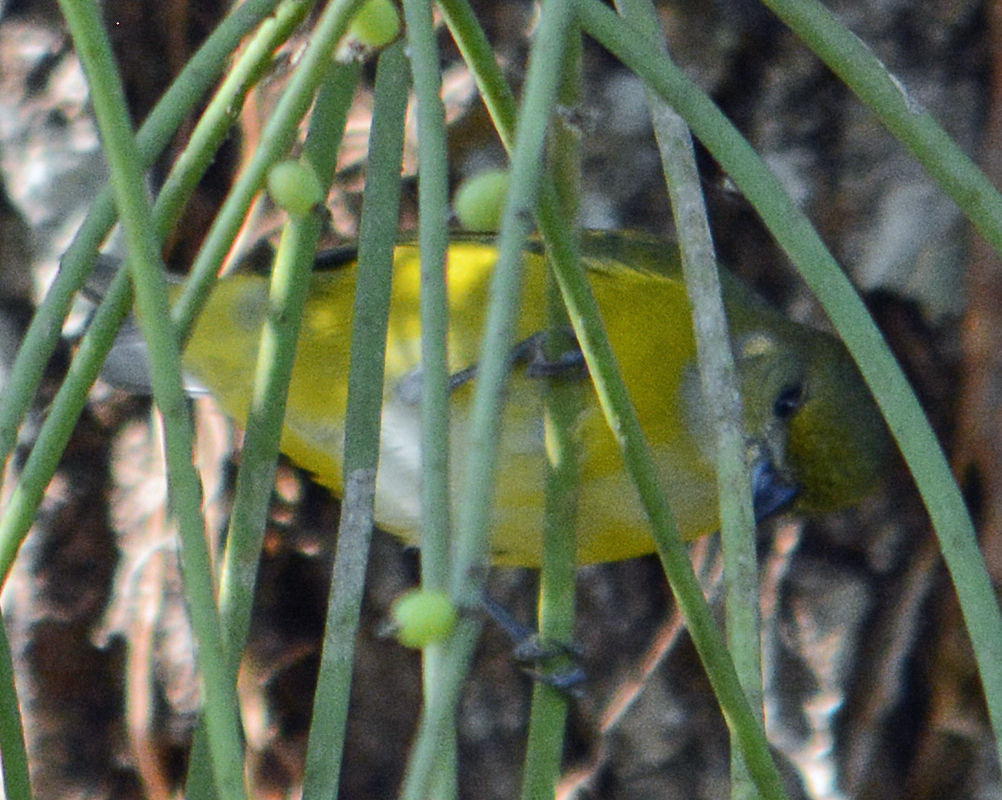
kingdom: Animalia
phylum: Chordata
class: Aves
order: Passeriformes
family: Fringillidae
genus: Euphonia
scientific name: Euphonia hirundinacea
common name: Yellow-throated euphonia
